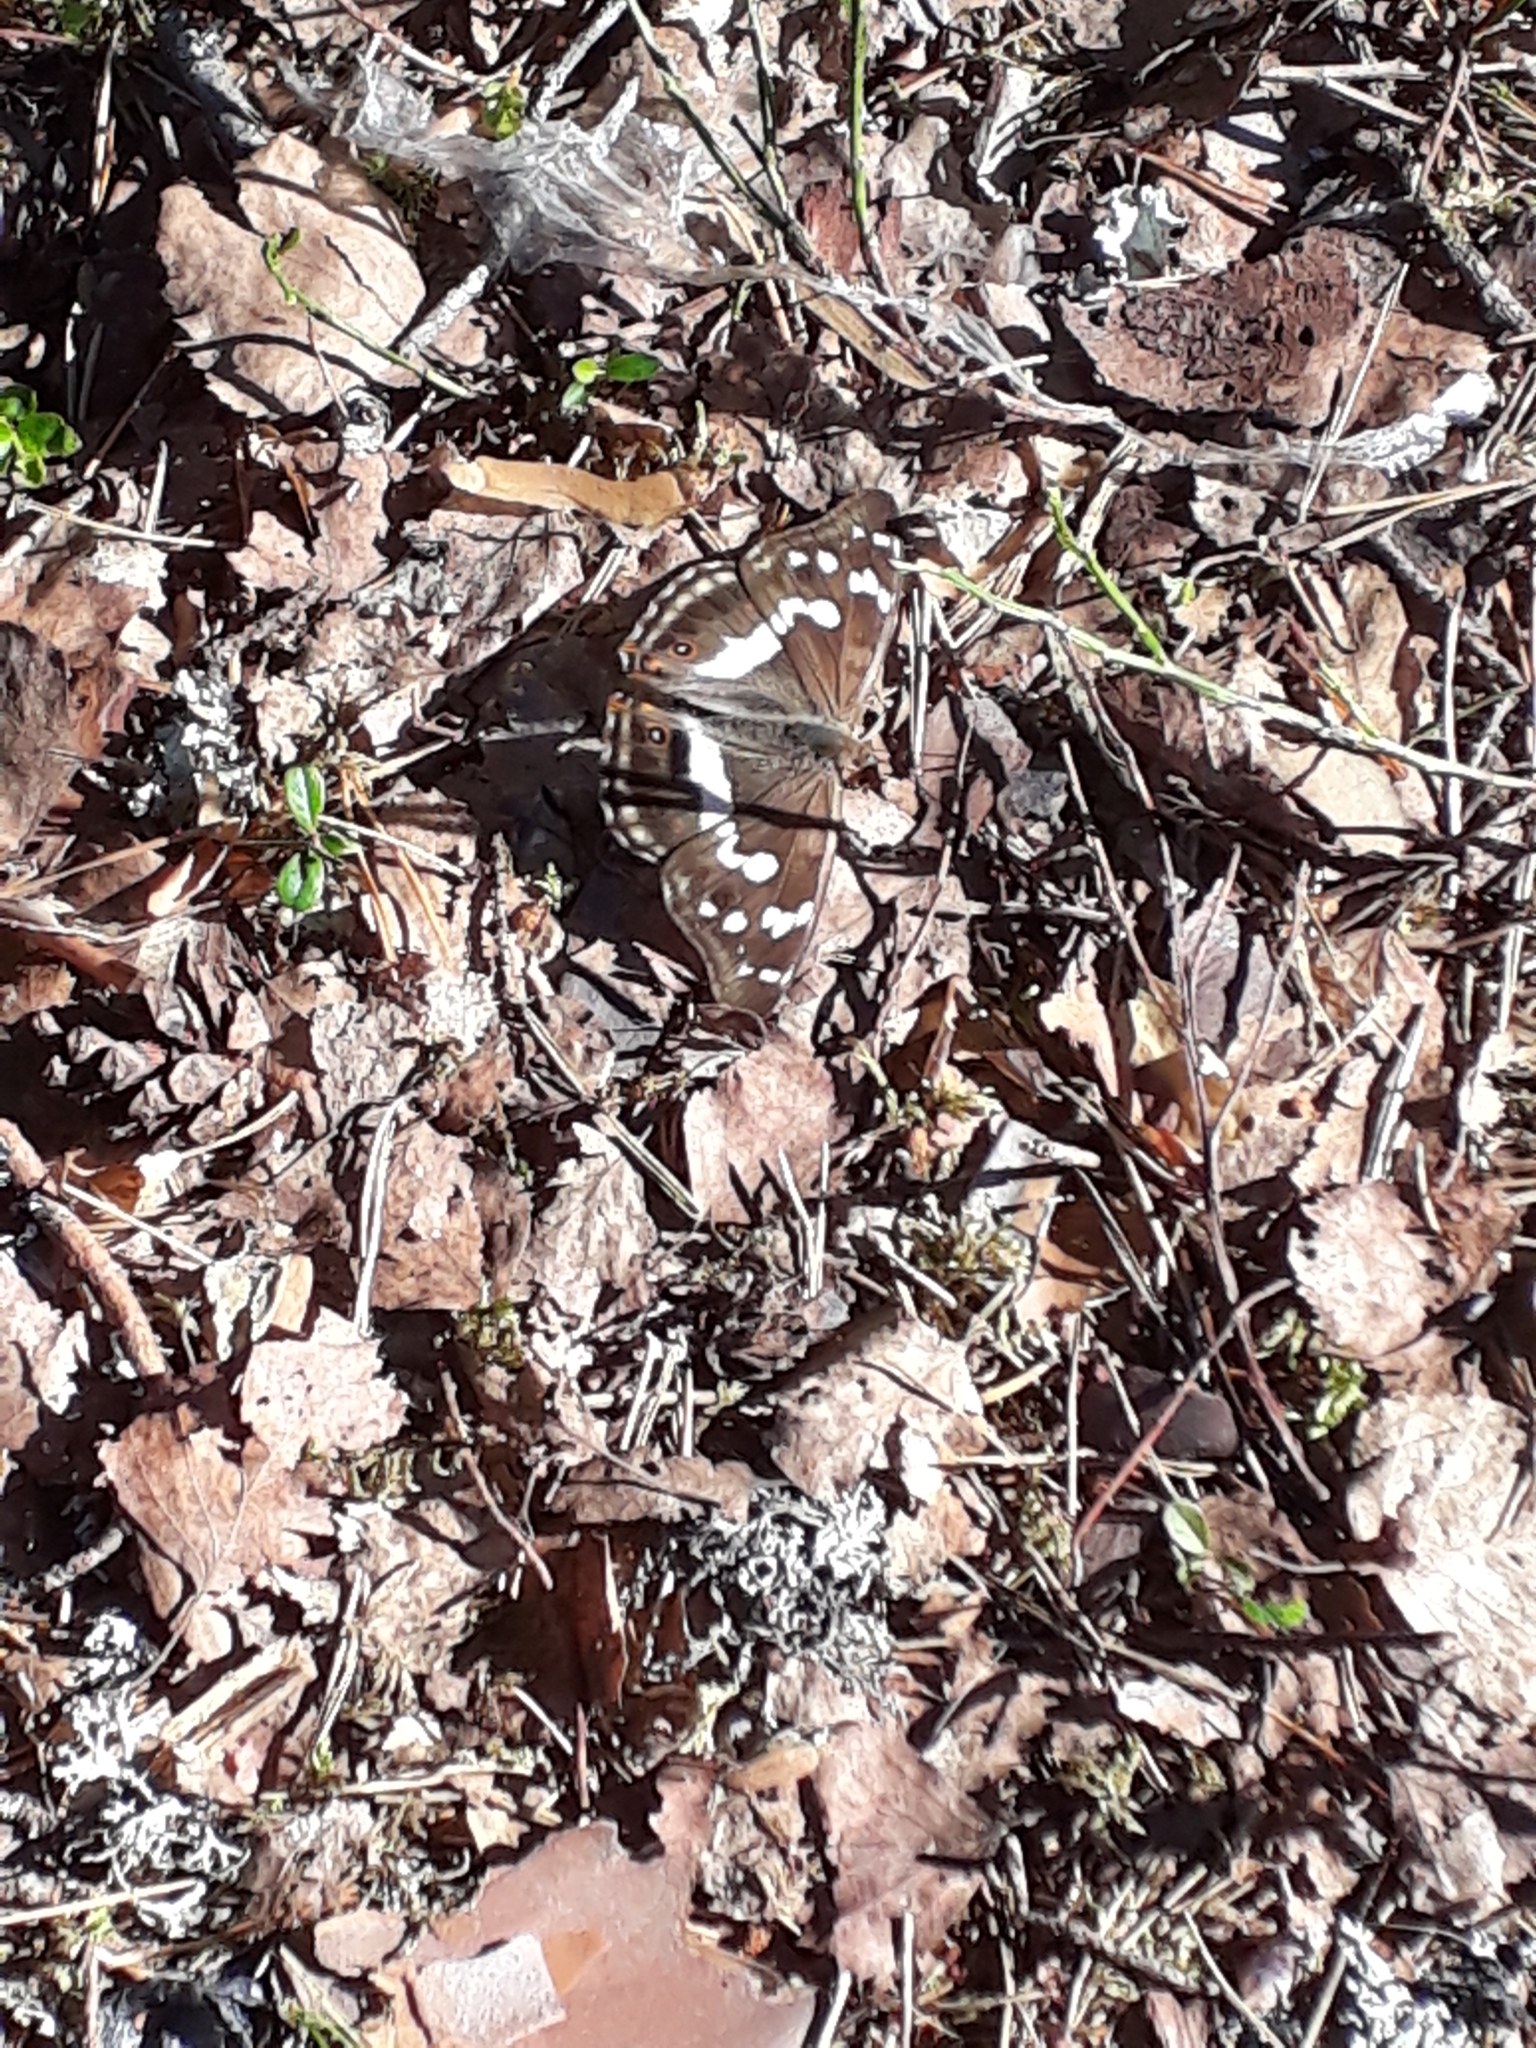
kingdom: Animalia
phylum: Arthropoda
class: Insecta
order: Lepidoptera
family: Nymphalidae
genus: Apatura
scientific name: Apatura iris
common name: Purple emperor
